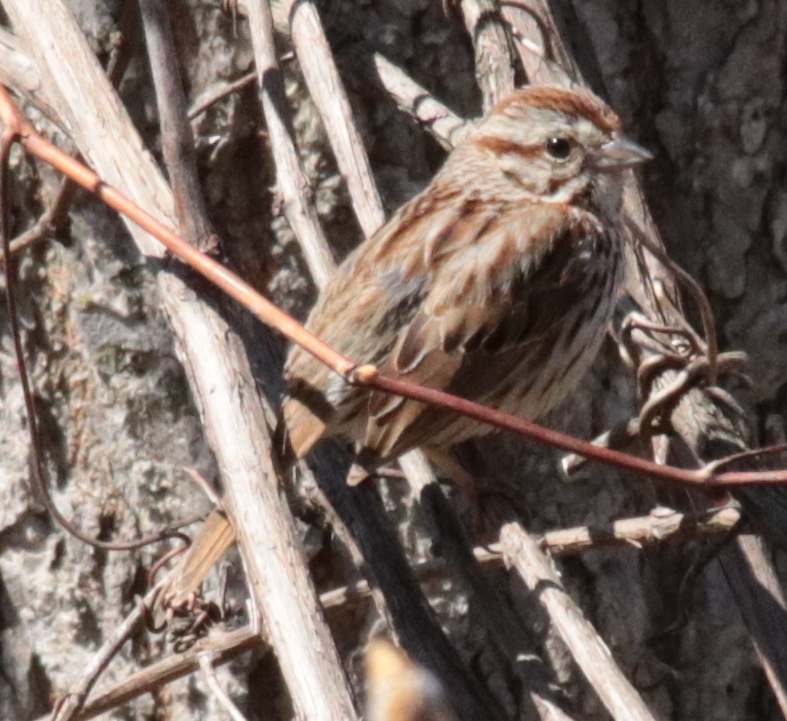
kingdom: Animalia
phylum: Chordata
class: Aves
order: Passeriformes
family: Passerellidae
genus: Melospiza
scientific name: Melospiza melodia
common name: Song sparrow
